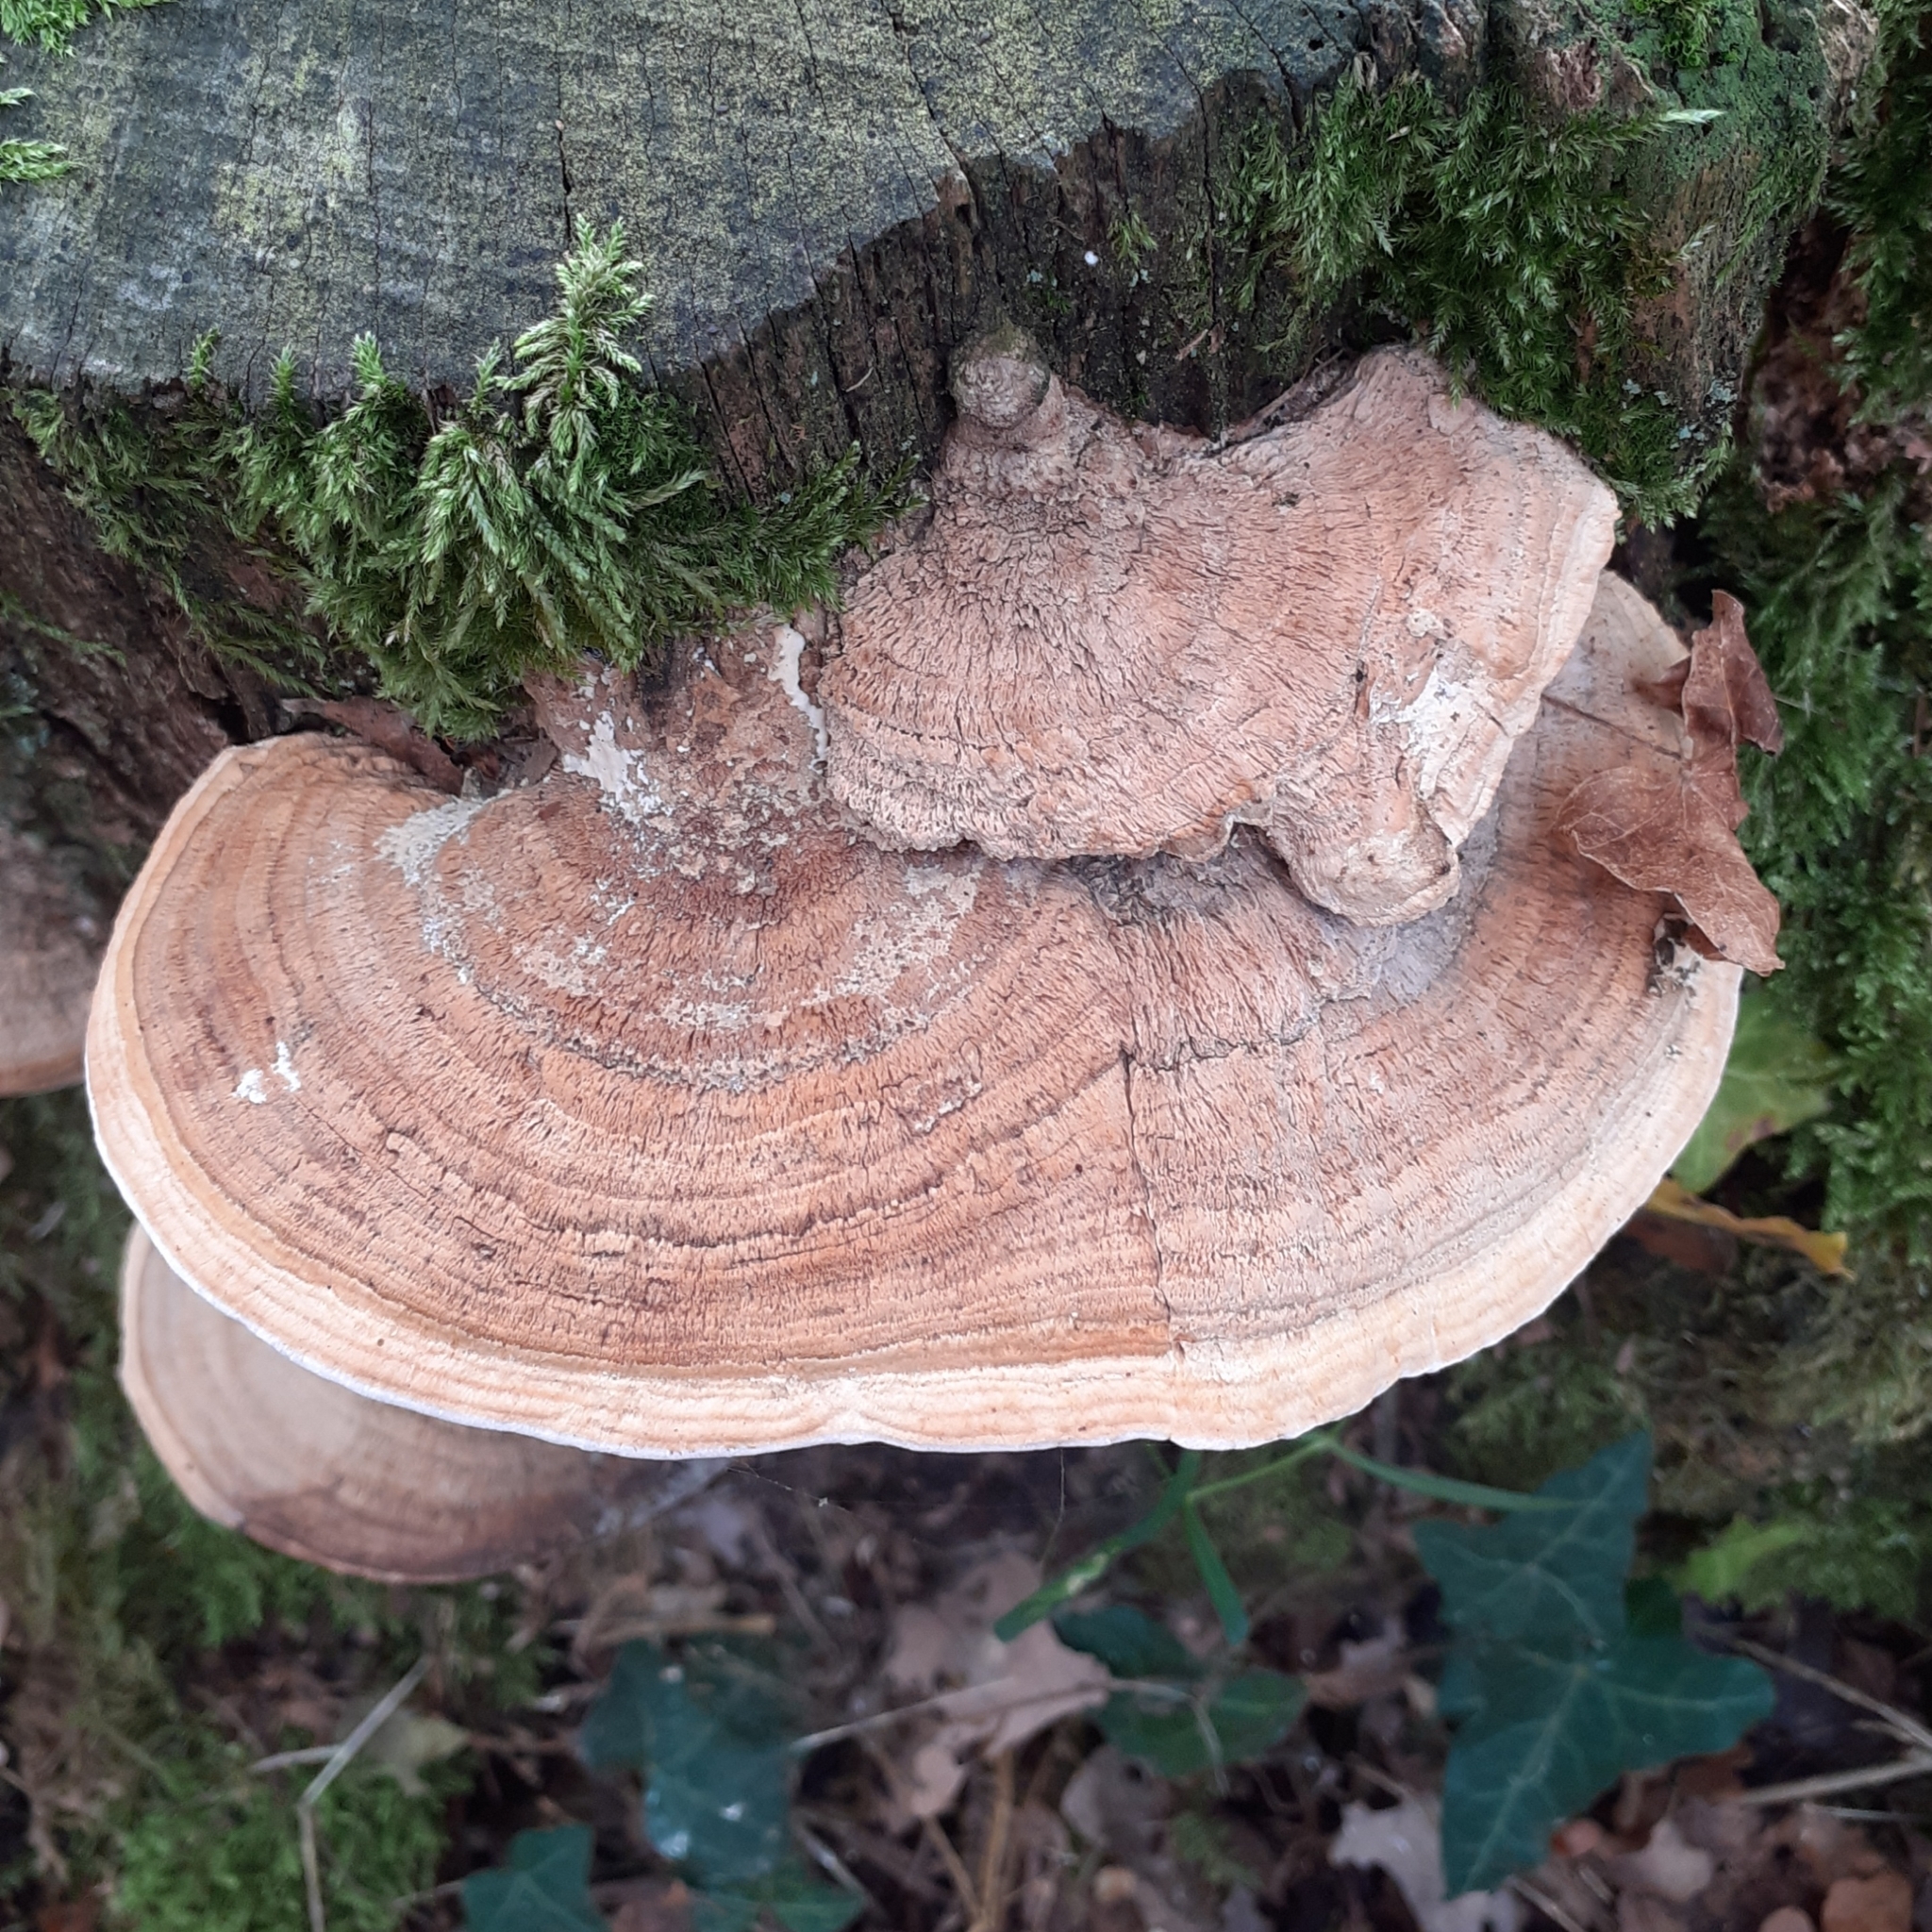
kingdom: Fungi
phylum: Basidiomycota
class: Agaricomycetes
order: Polyporales
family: Fomitopsidaceae
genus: Fomitopsis
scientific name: Fomitopsis
